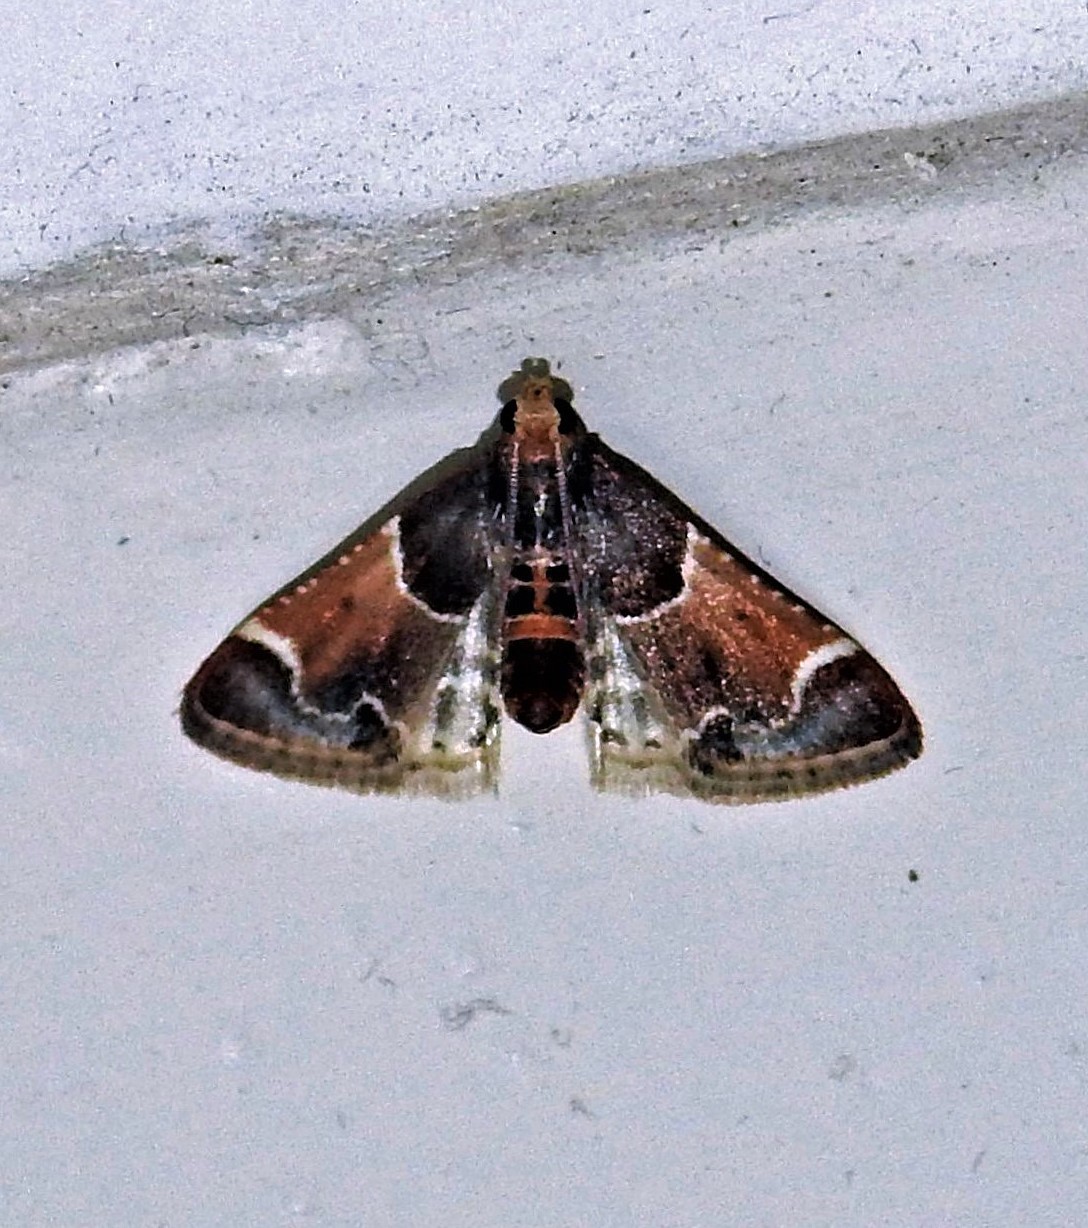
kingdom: Animalia
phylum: Arthropoda
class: Insecta
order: Lepidoptera
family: Pyralidae
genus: Pyralis
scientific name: Pyralis farinalis
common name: Meal moth
